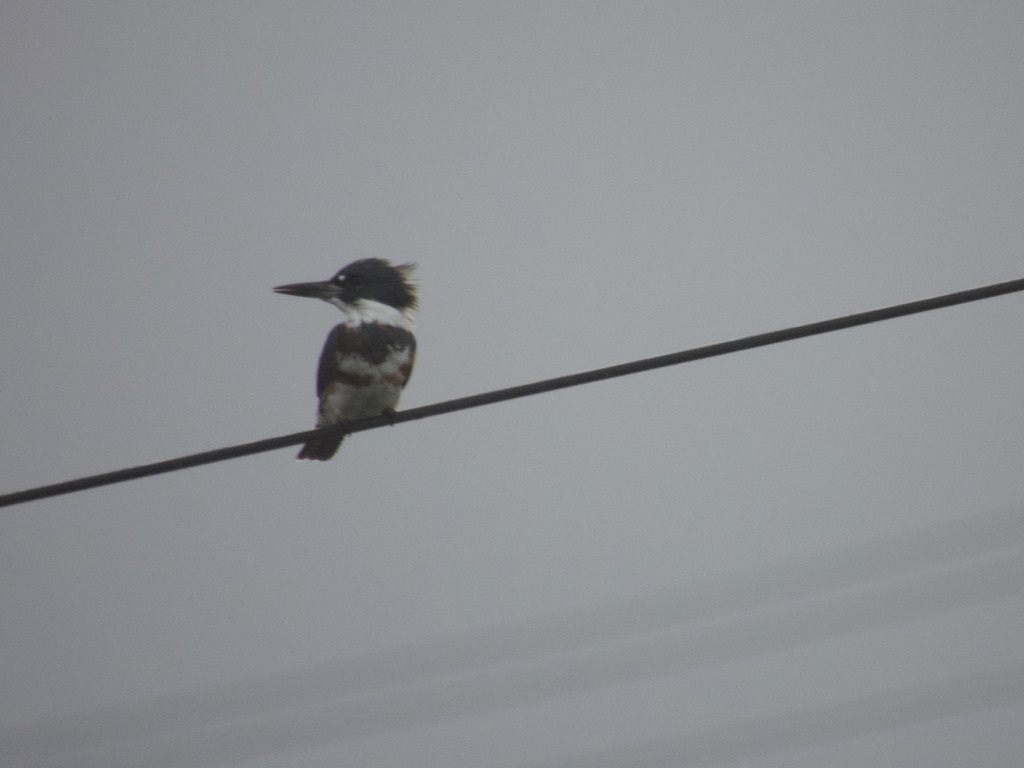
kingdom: Animalia
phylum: Chordata
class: Aves
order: Coraciiformes
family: Alcedinidae
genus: Megaceryle
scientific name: Megaceryle alcyon
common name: Belted kingfisher
